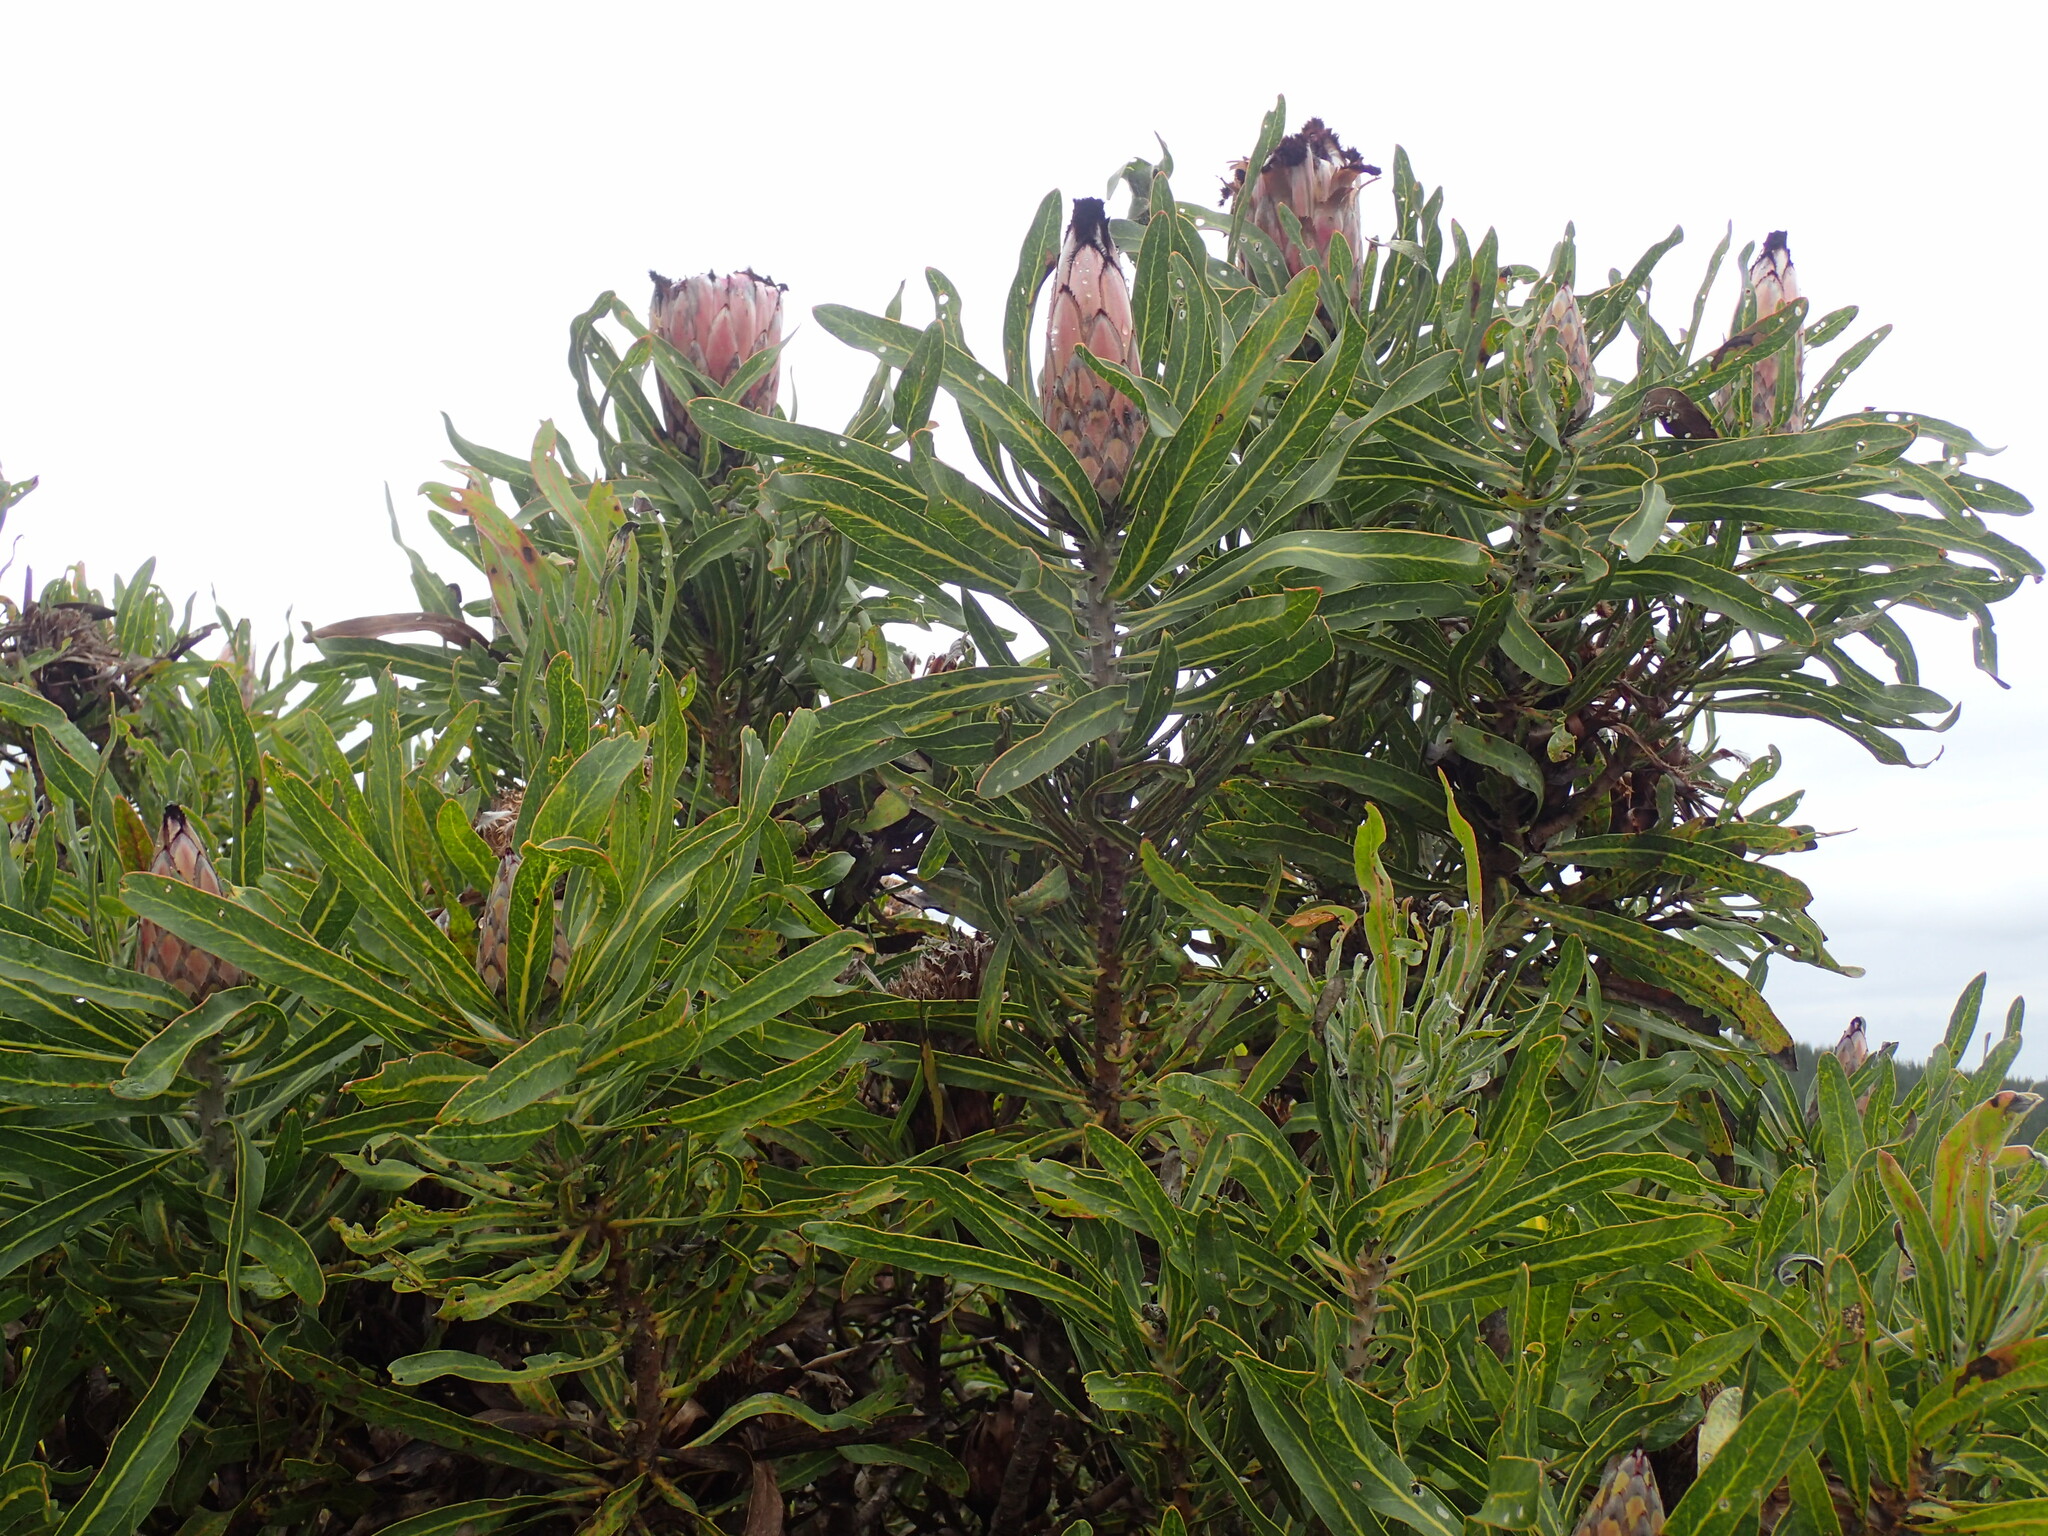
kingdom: Plantae
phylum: Tracheophyta
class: Magnoliopsida
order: Proteales
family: Proteaceae
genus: Protea
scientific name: Protea neriifolia
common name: Blue sugarbush
